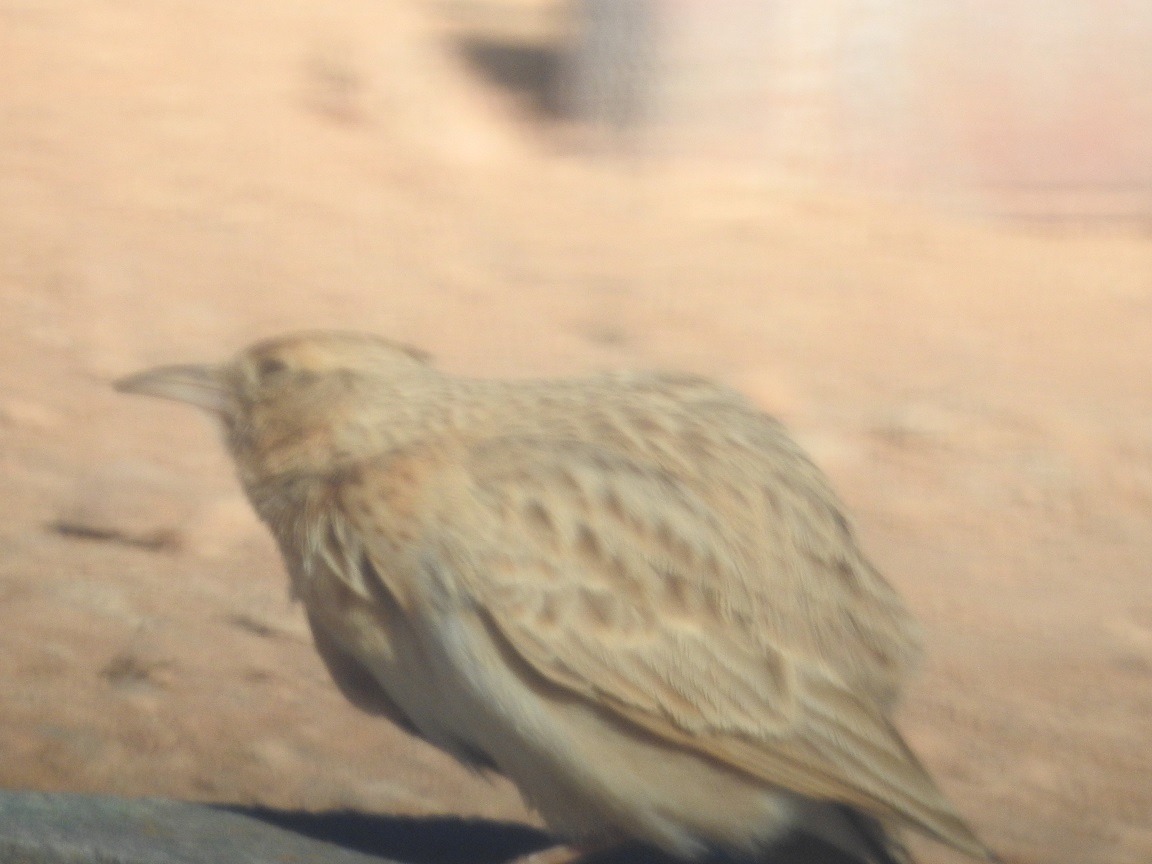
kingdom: Animalia
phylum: Chordata
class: Aves
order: Passeriformes
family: Alaudidae
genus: Galerida
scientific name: Galerida cristata
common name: Crested lark
